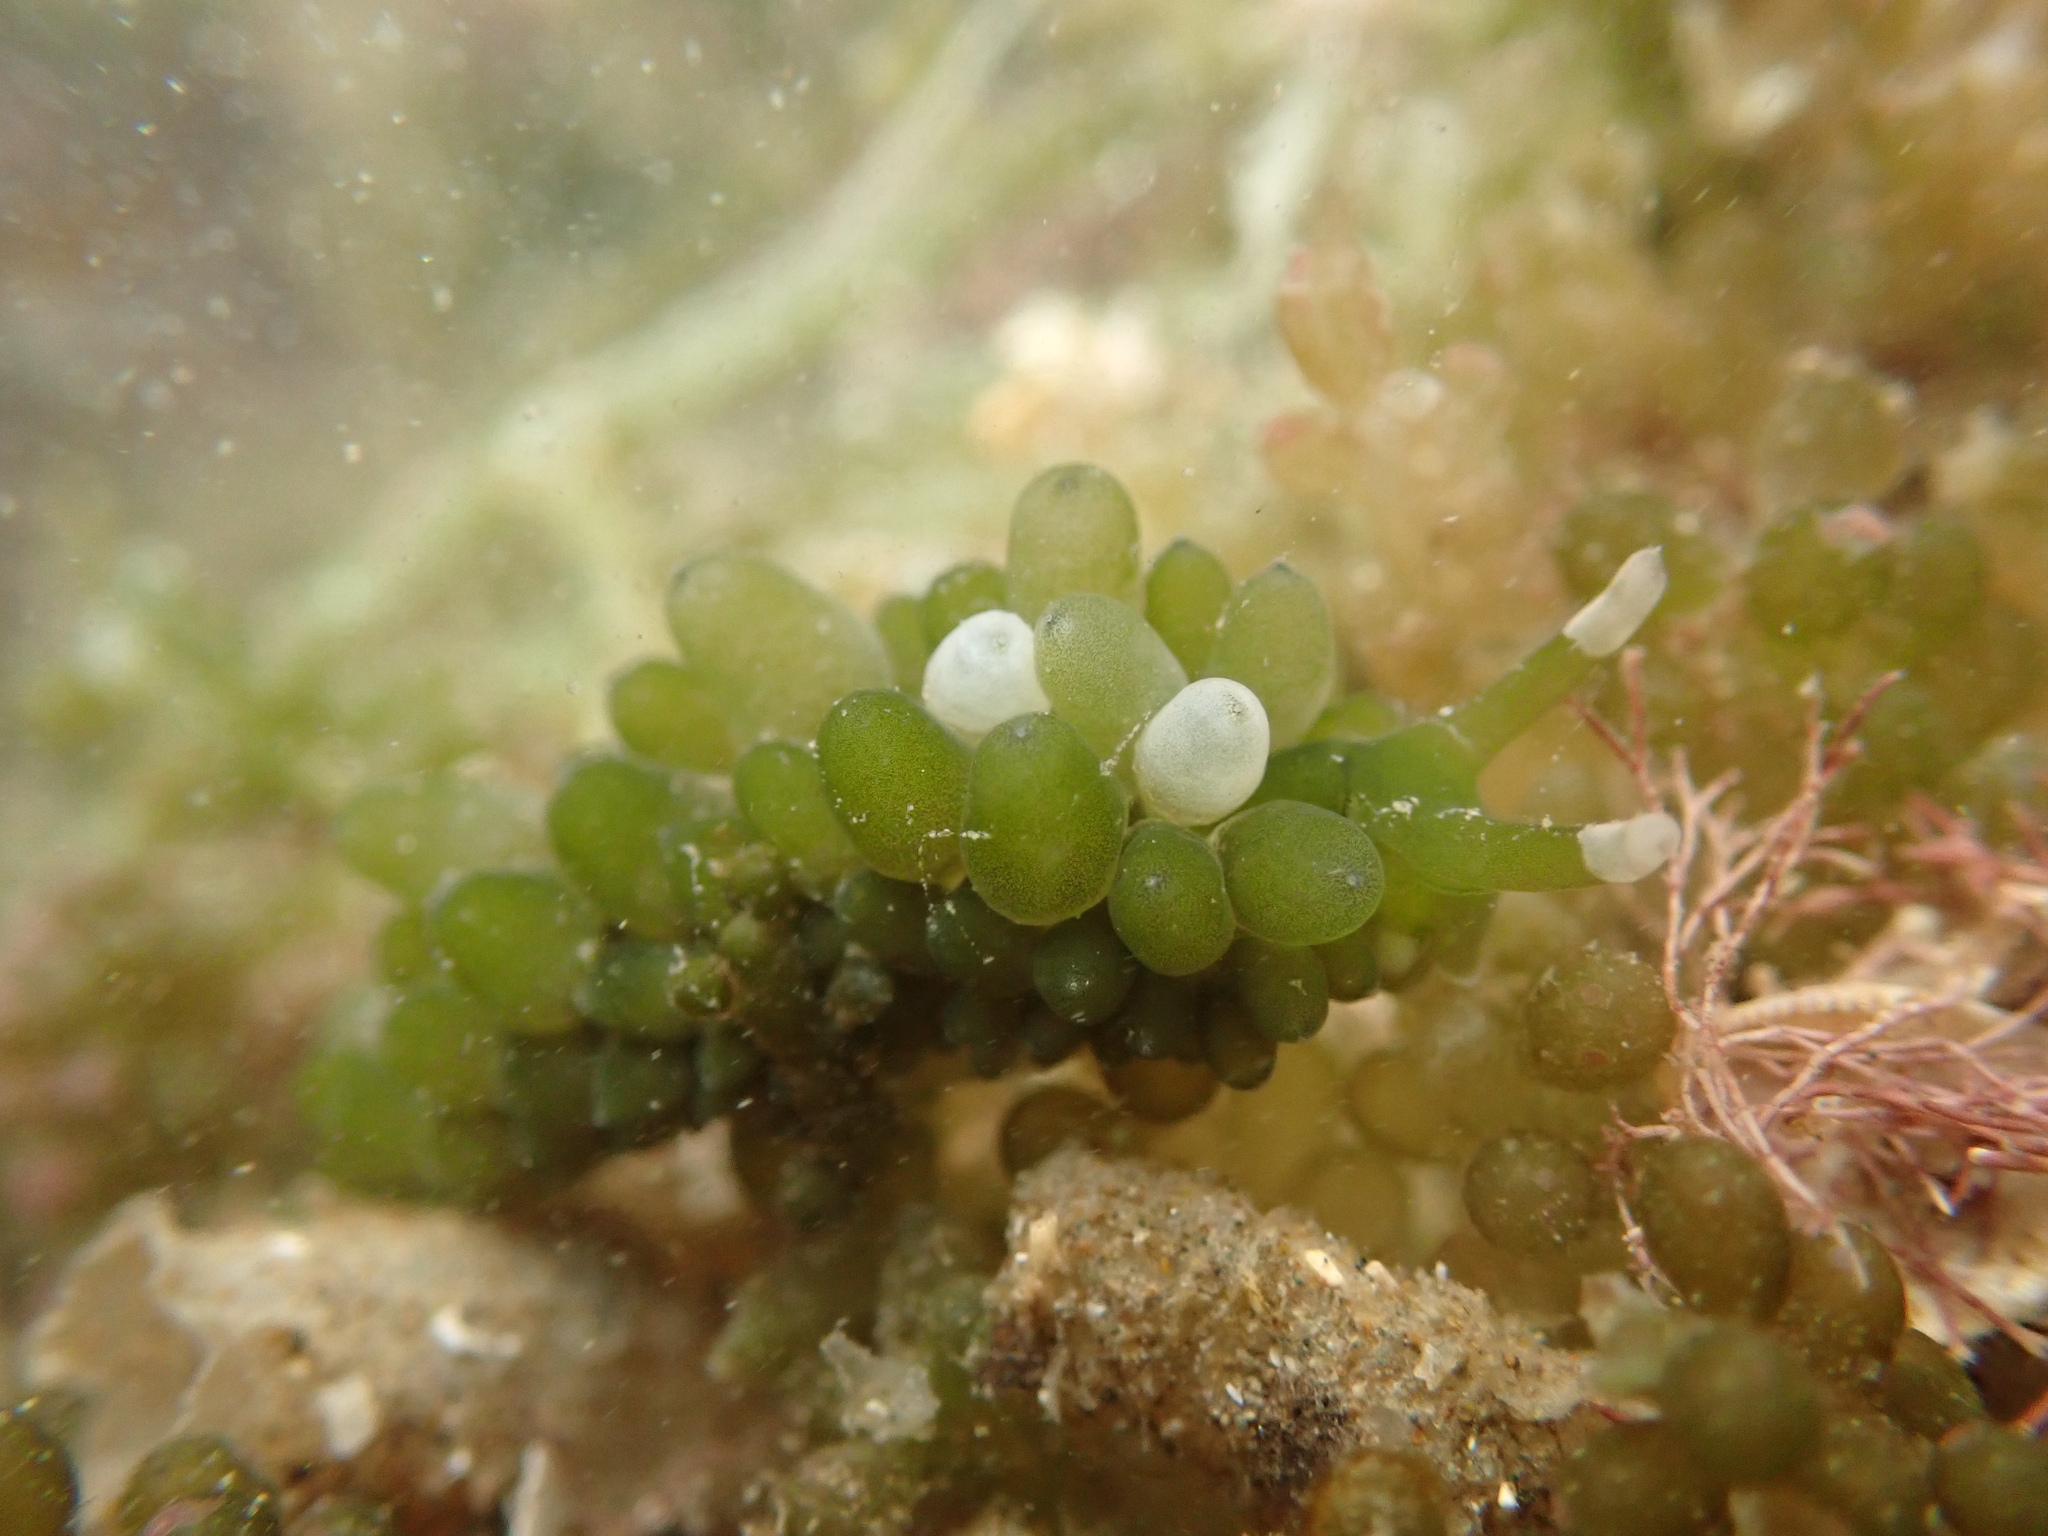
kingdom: Plantae
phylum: Chlorophyta
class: Ulvophyceae
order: Bryopsidales
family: Caulerpaceae
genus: Caulerpa
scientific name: Caulerpa geminata
